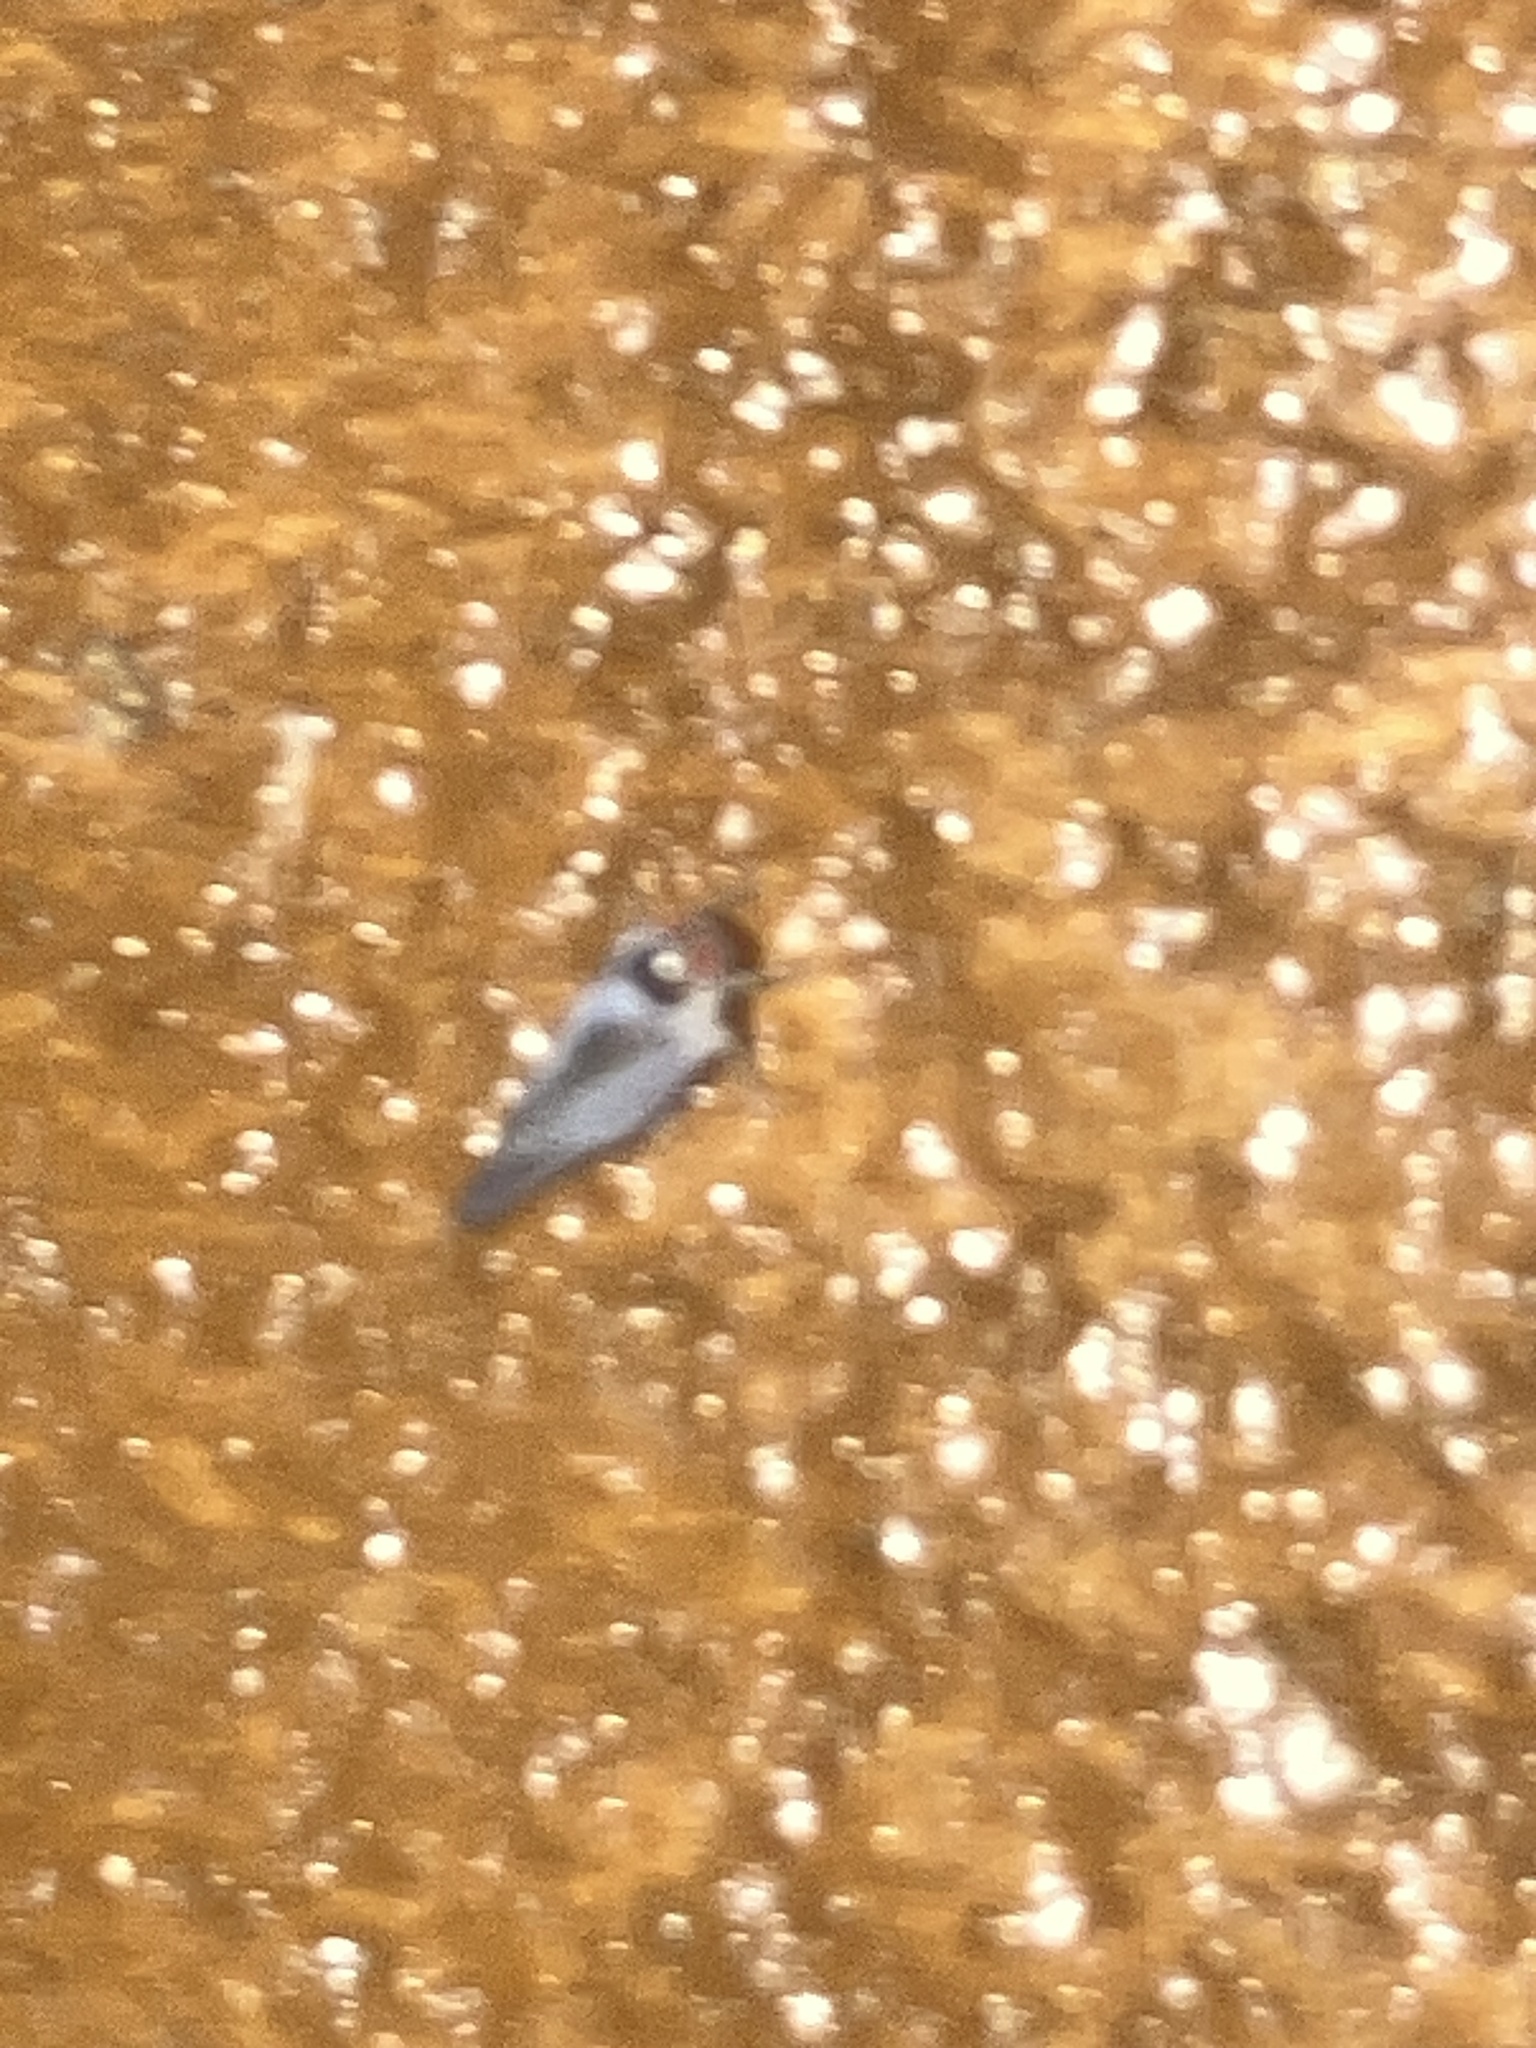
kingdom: Animalia
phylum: Arthropoda
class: Insecta
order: Hemiptera
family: Derbidae
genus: Cedusa
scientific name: Cedusa
